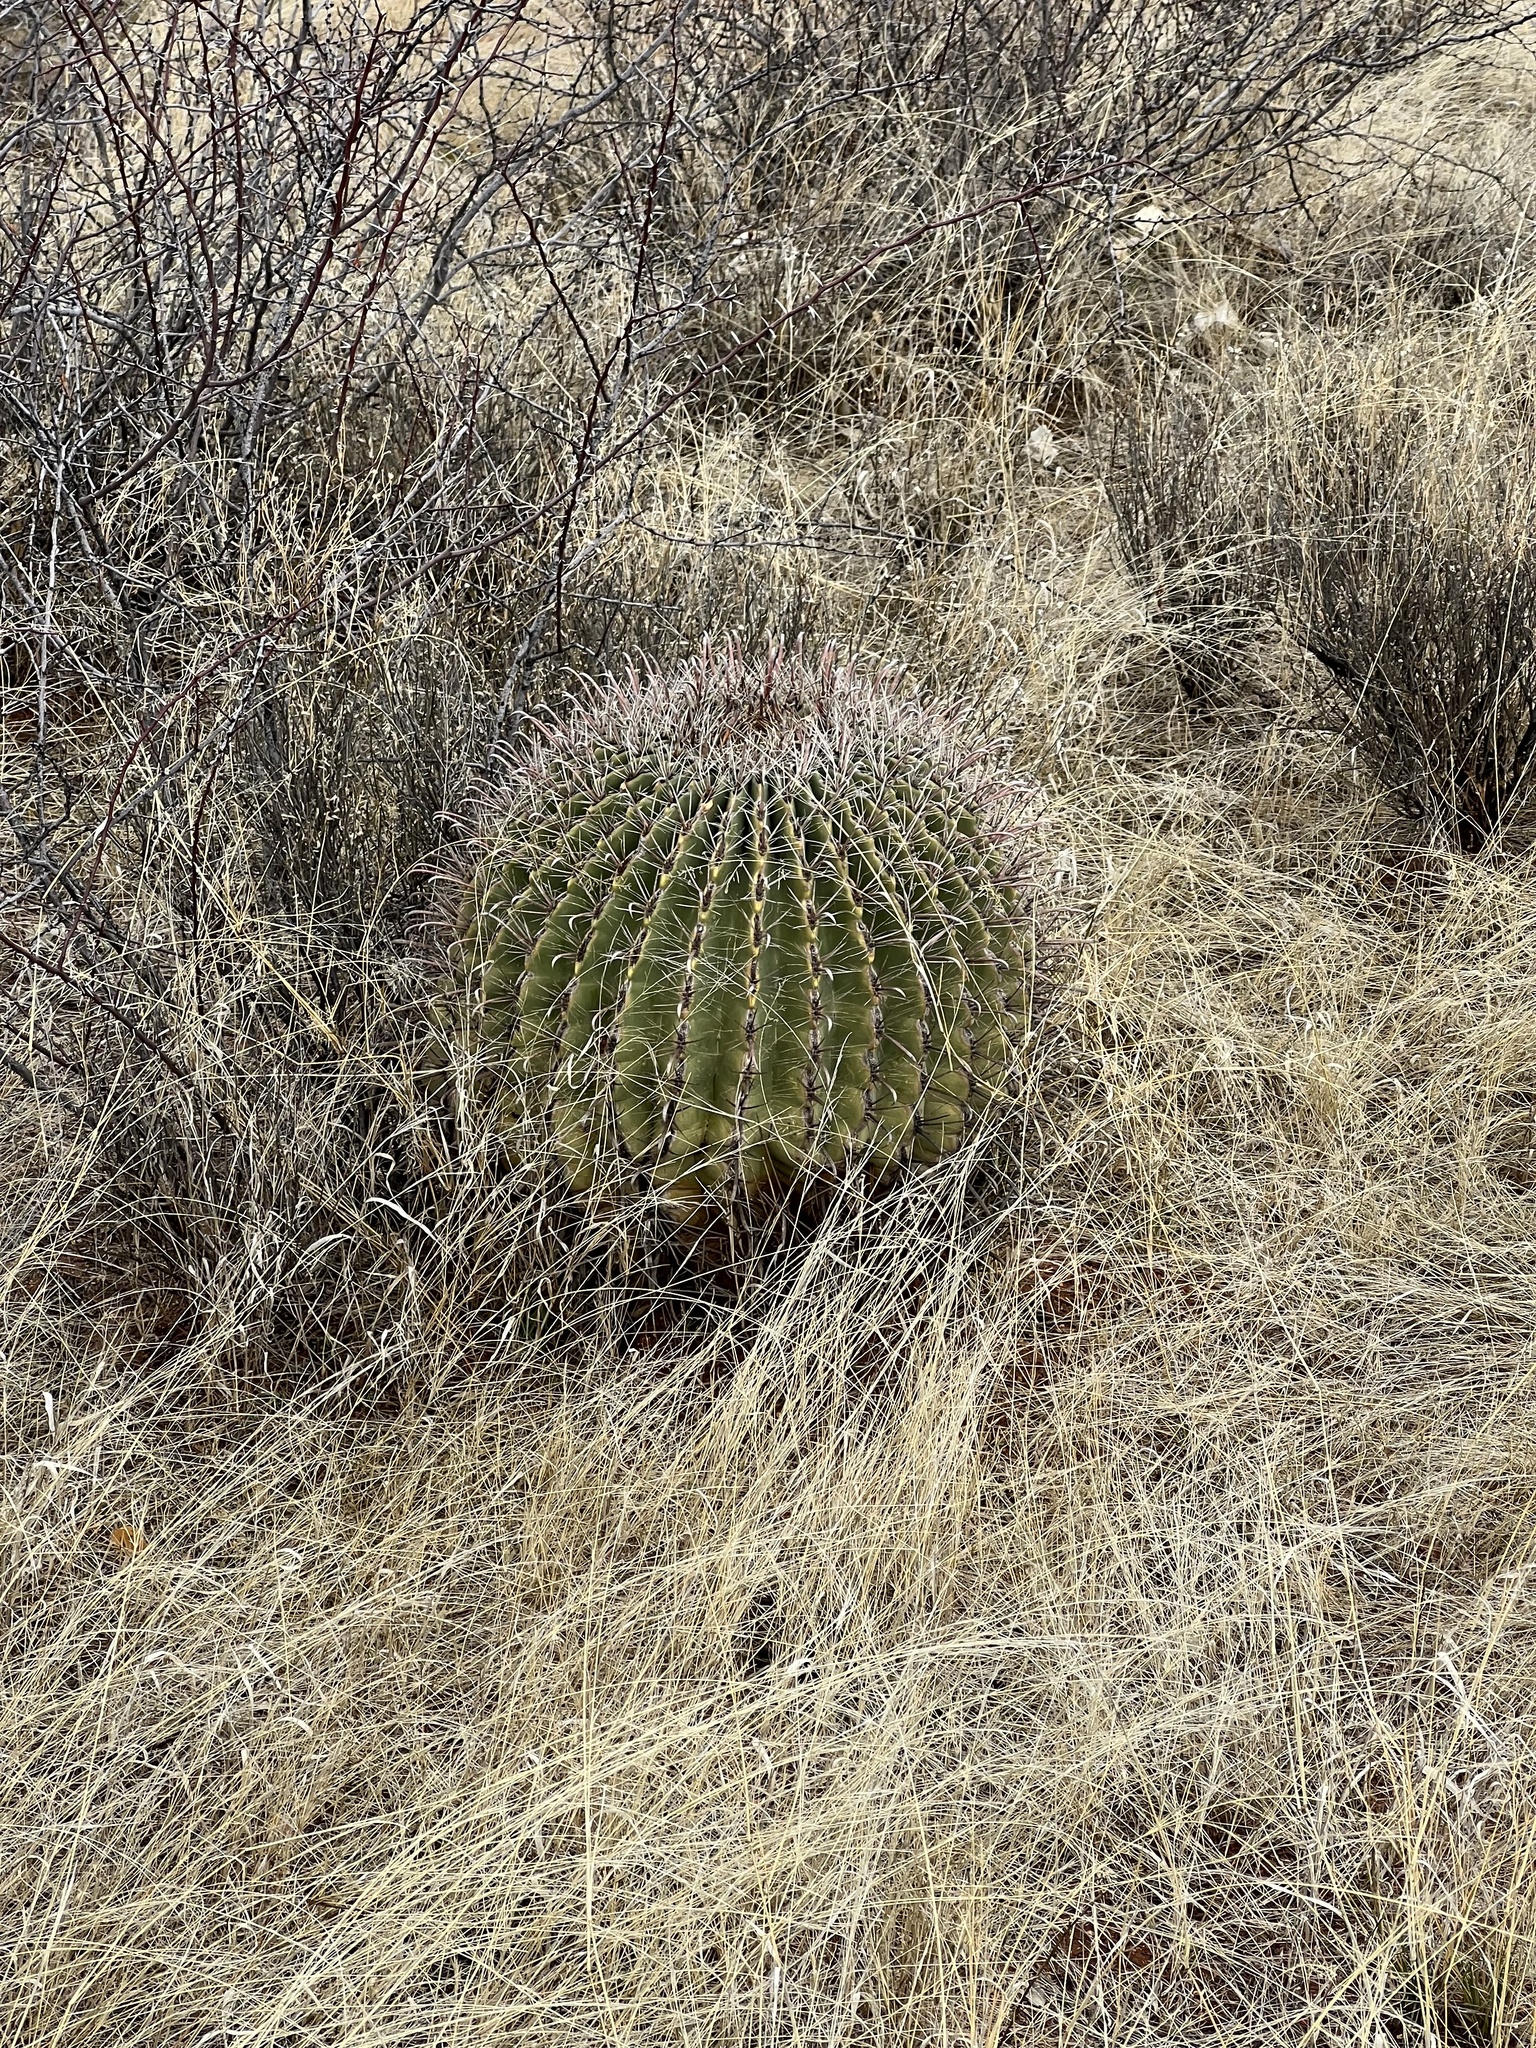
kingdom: Plantae
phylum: Tracheophyta
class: Magnoliopsida
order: Caryophyllales
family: Cactaceae
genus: Ferocactus
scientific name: Ferocactus wislizeni
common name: Candy barrel cactus
